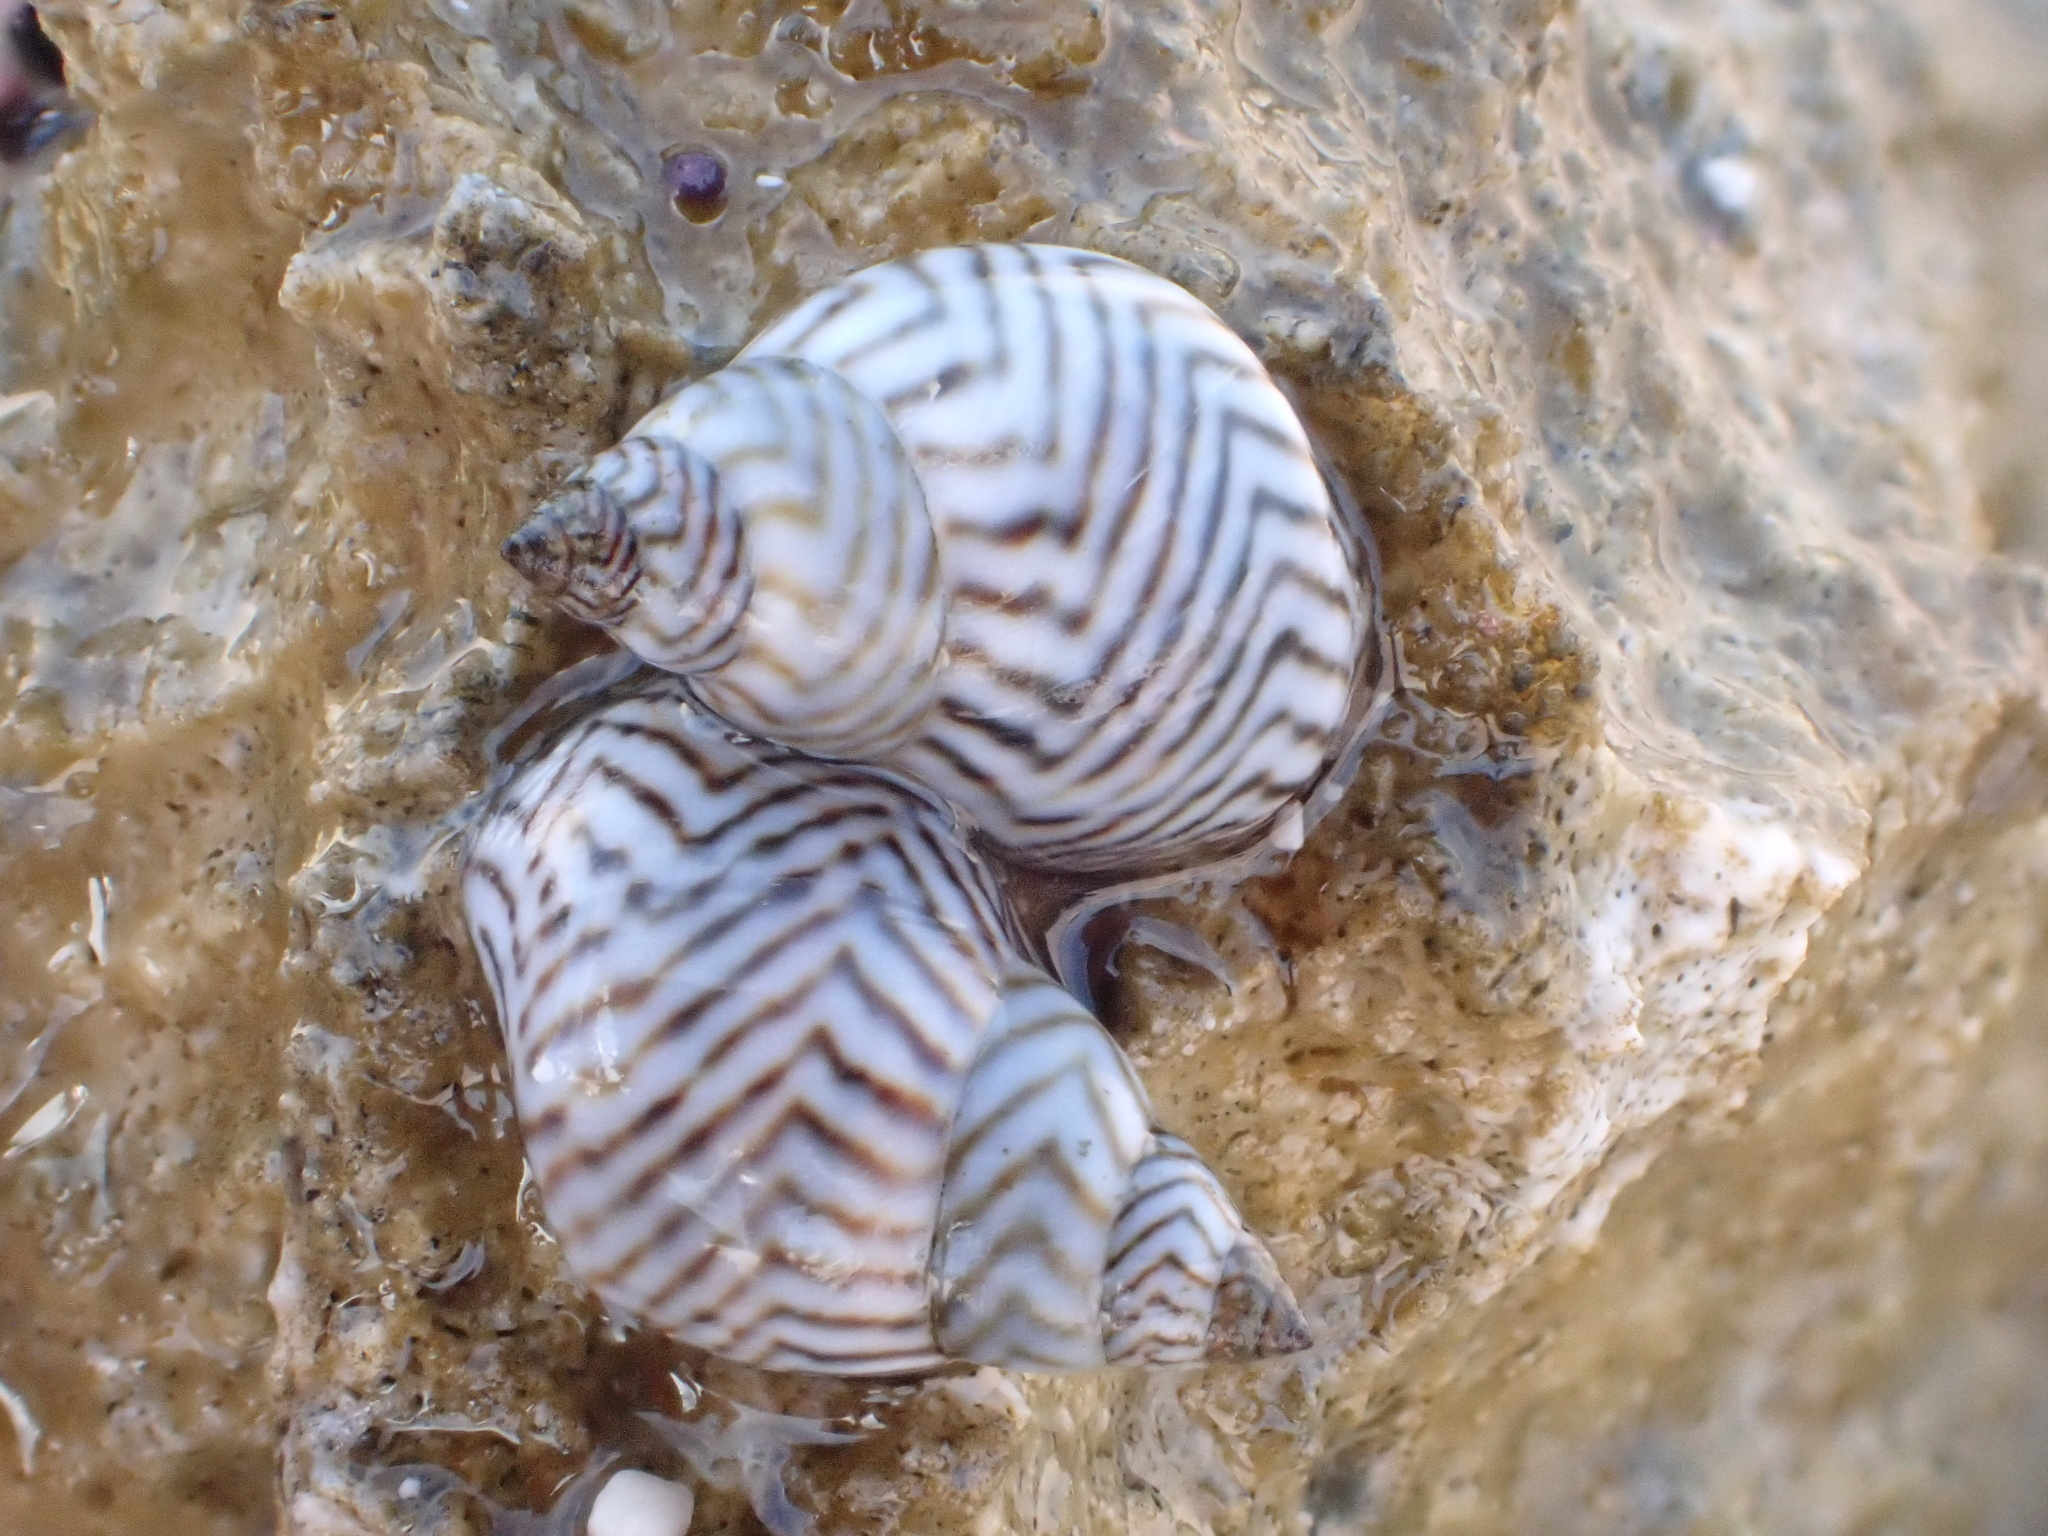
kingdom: Animalia
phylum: Mollusca
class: Gastropoda
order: Littorinimorpha
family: Littorinidae
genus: Echinolittorina
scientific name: Echinolittorina ziczac
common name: Zebra periwinkle
